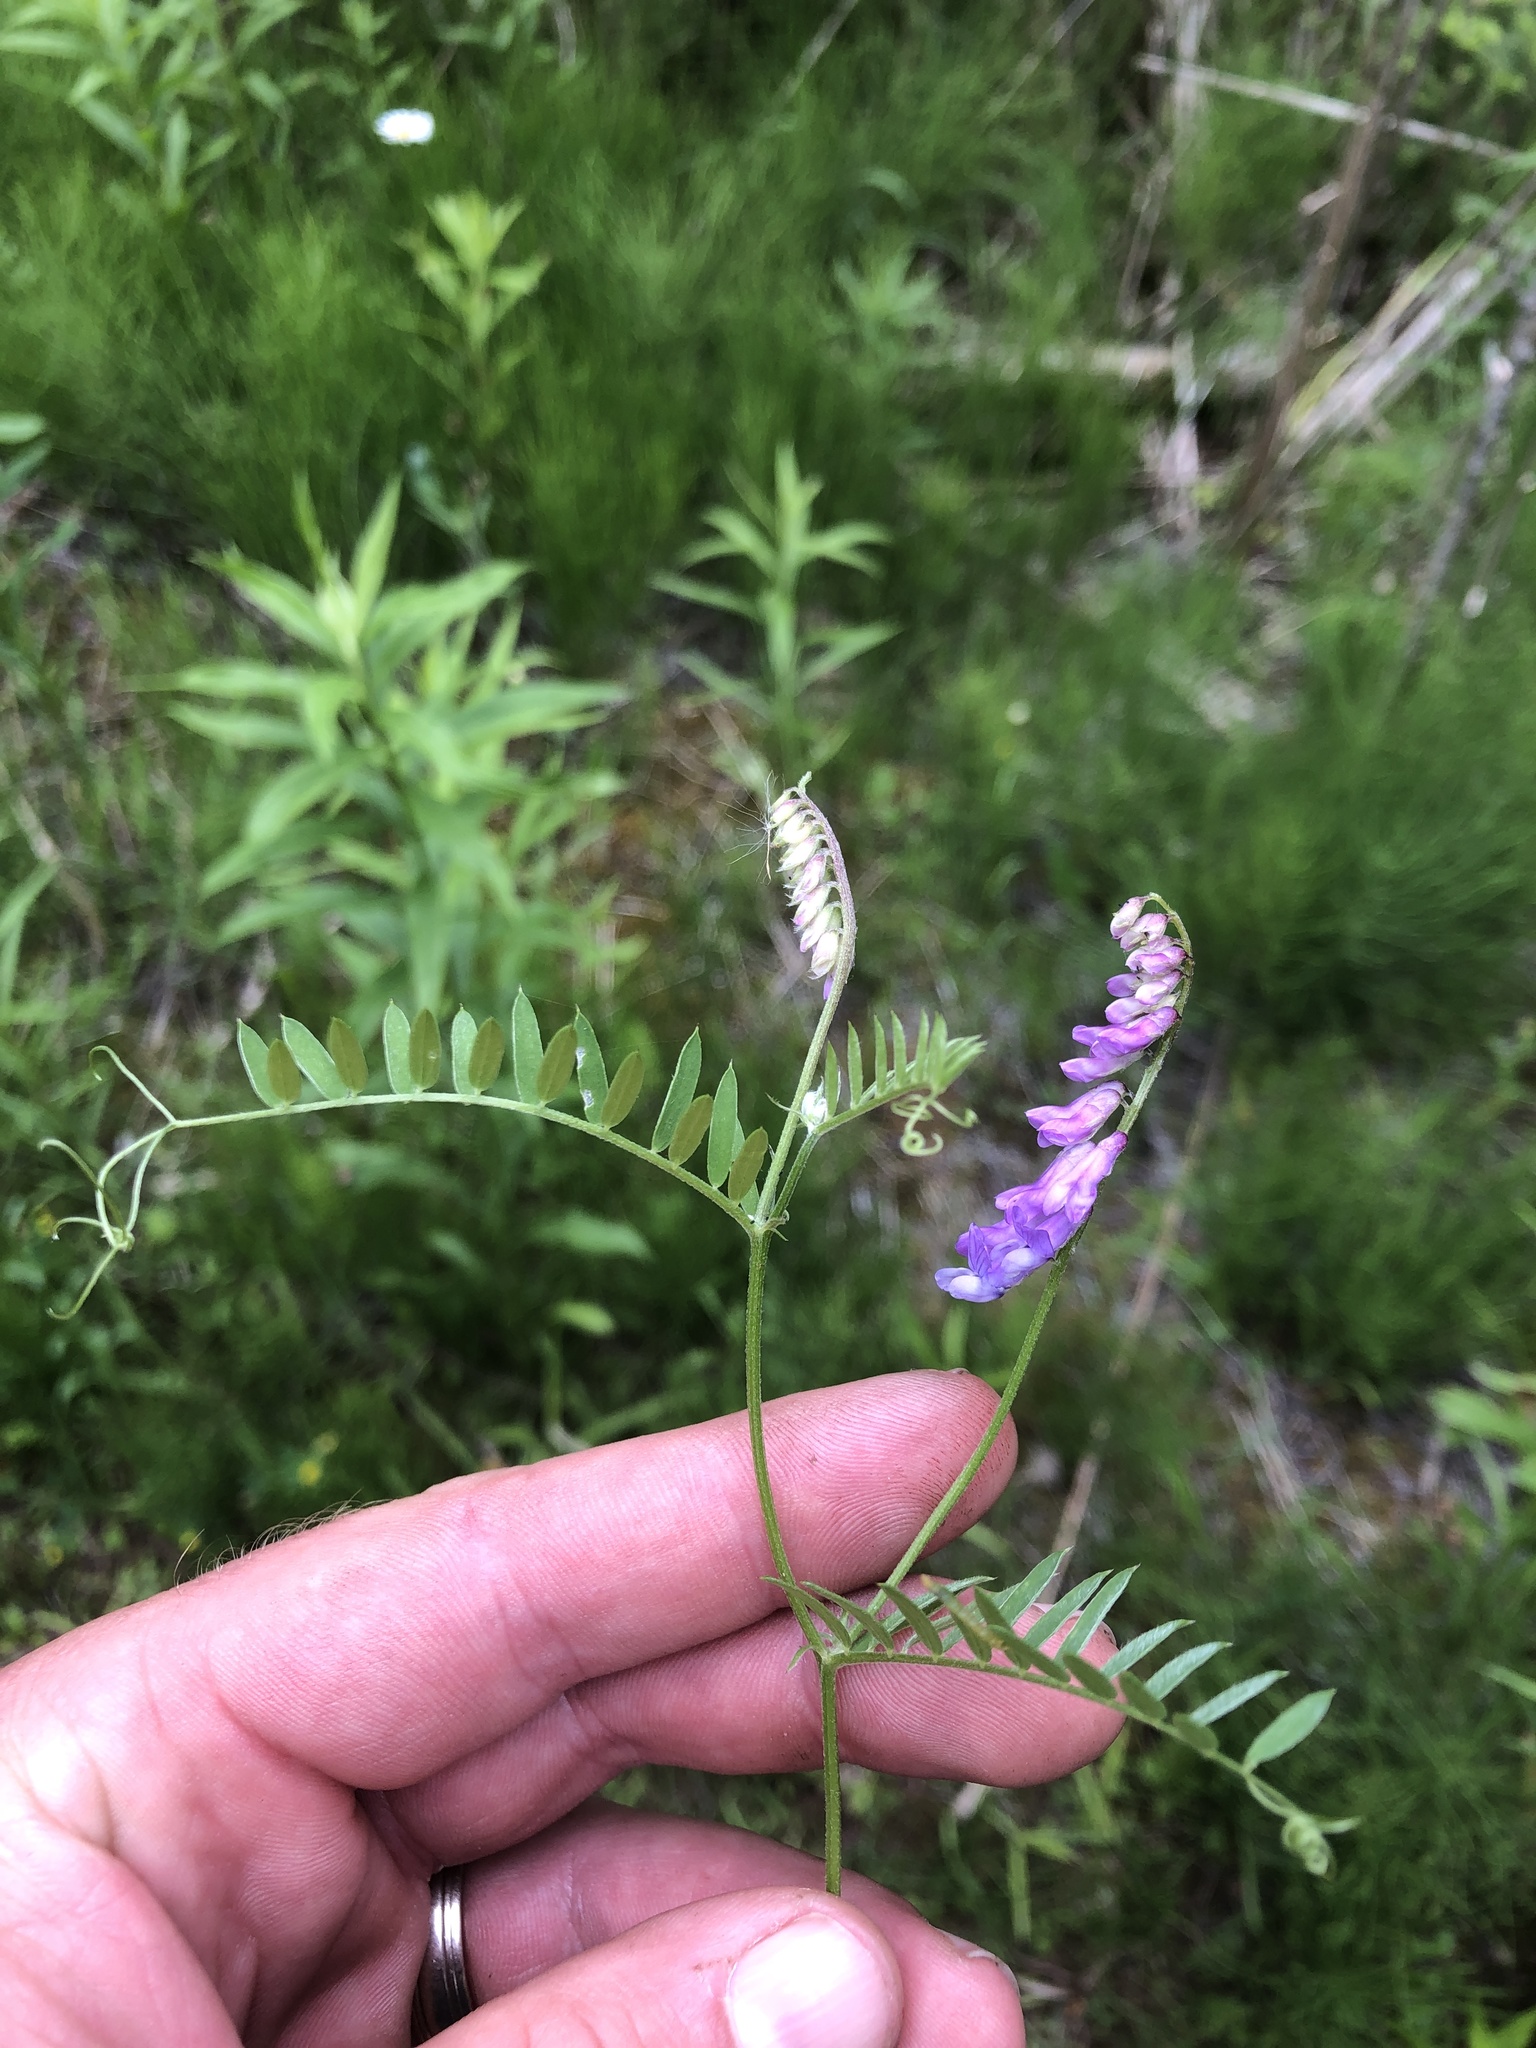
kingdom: Plantae
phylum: Tracheophyta
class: Magnoliopsida
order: Fabales
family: Fabaceae
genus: Vicia
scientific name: Vicia cracca
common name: Bird vetch
